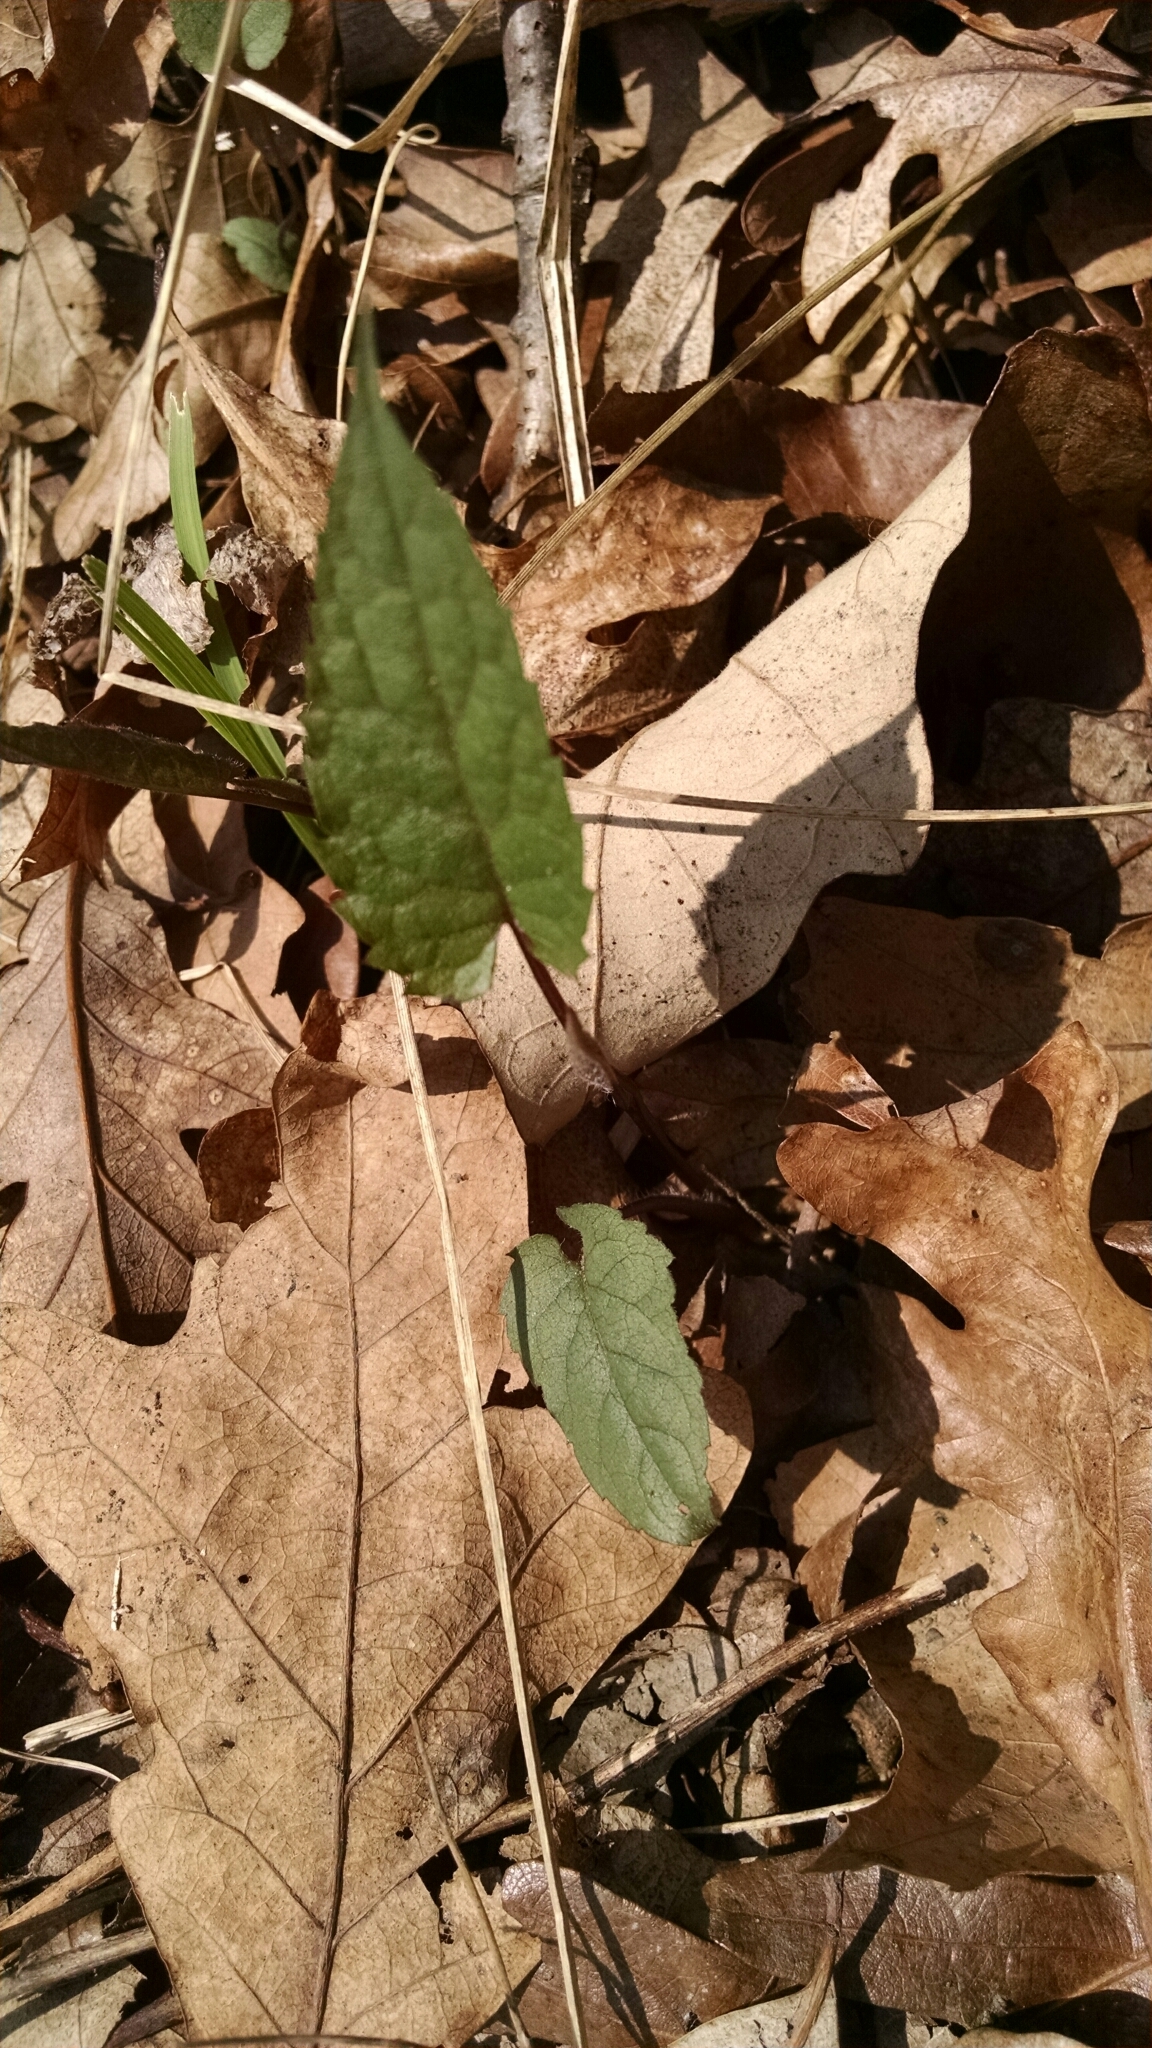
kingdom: Plantae
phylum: Tracheophyta
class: Magnoliopsida
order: Asterales
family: Asteraceae
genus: Eurybia
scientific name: Eurybia divaricata
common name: White wood aster
